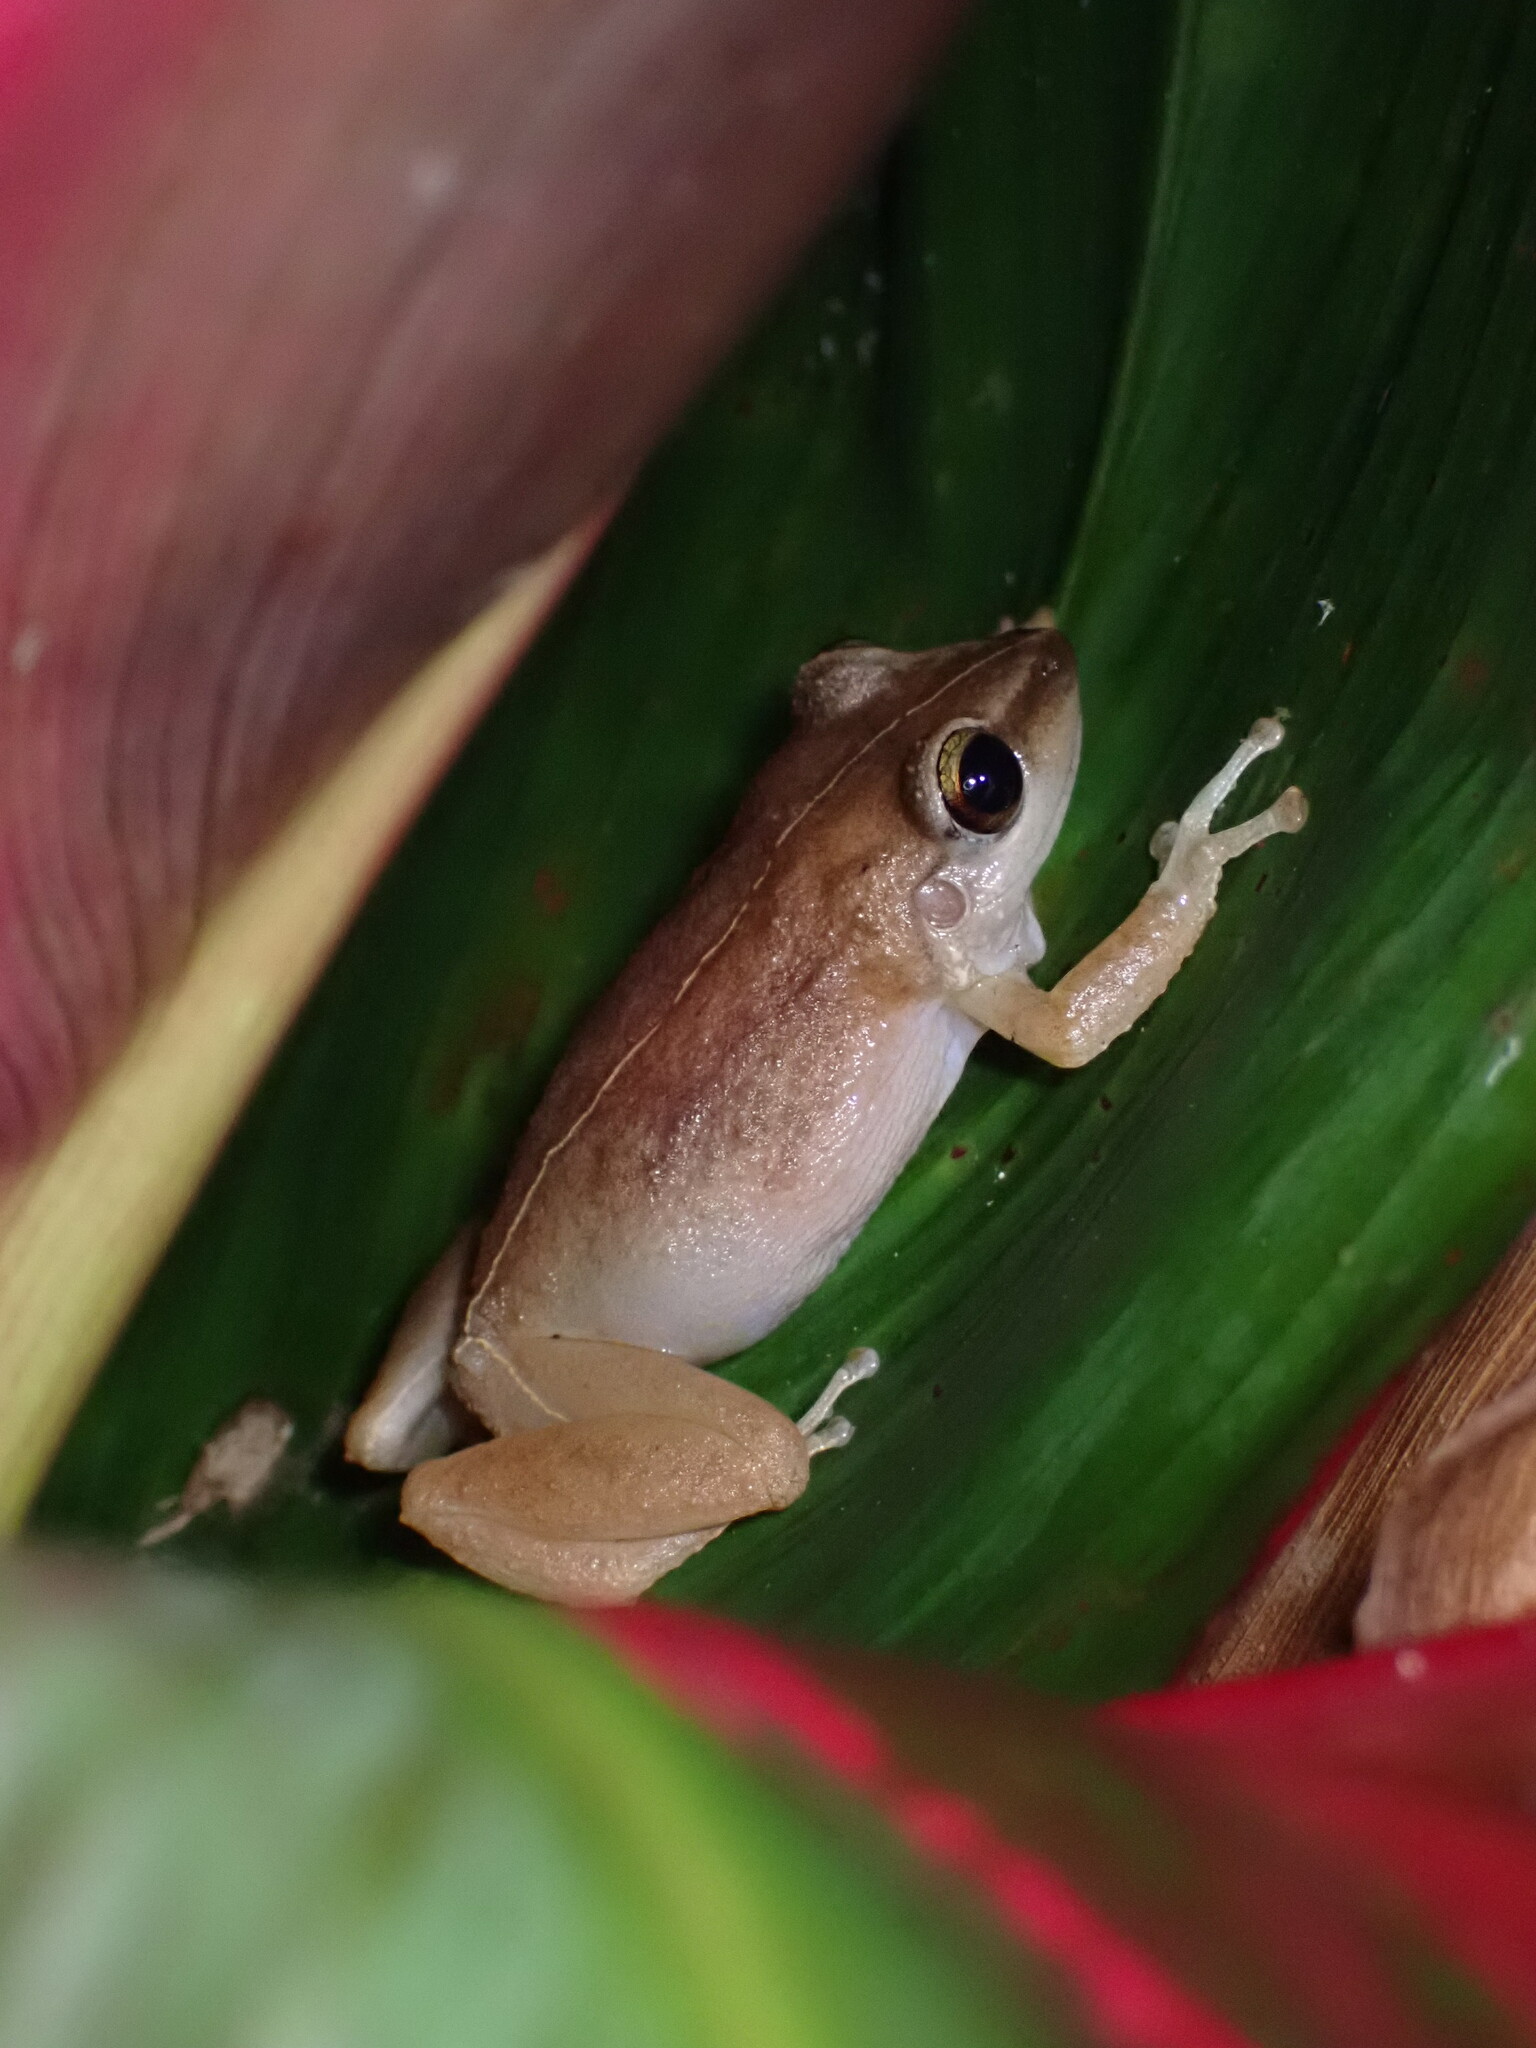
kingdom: Animalia
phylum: Chordata
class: Amphibia
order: Anura
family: Eleutherodactylidae
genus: Eleutherodactylus
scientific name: Eleutherodactylus coqui
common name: Coqui frog
